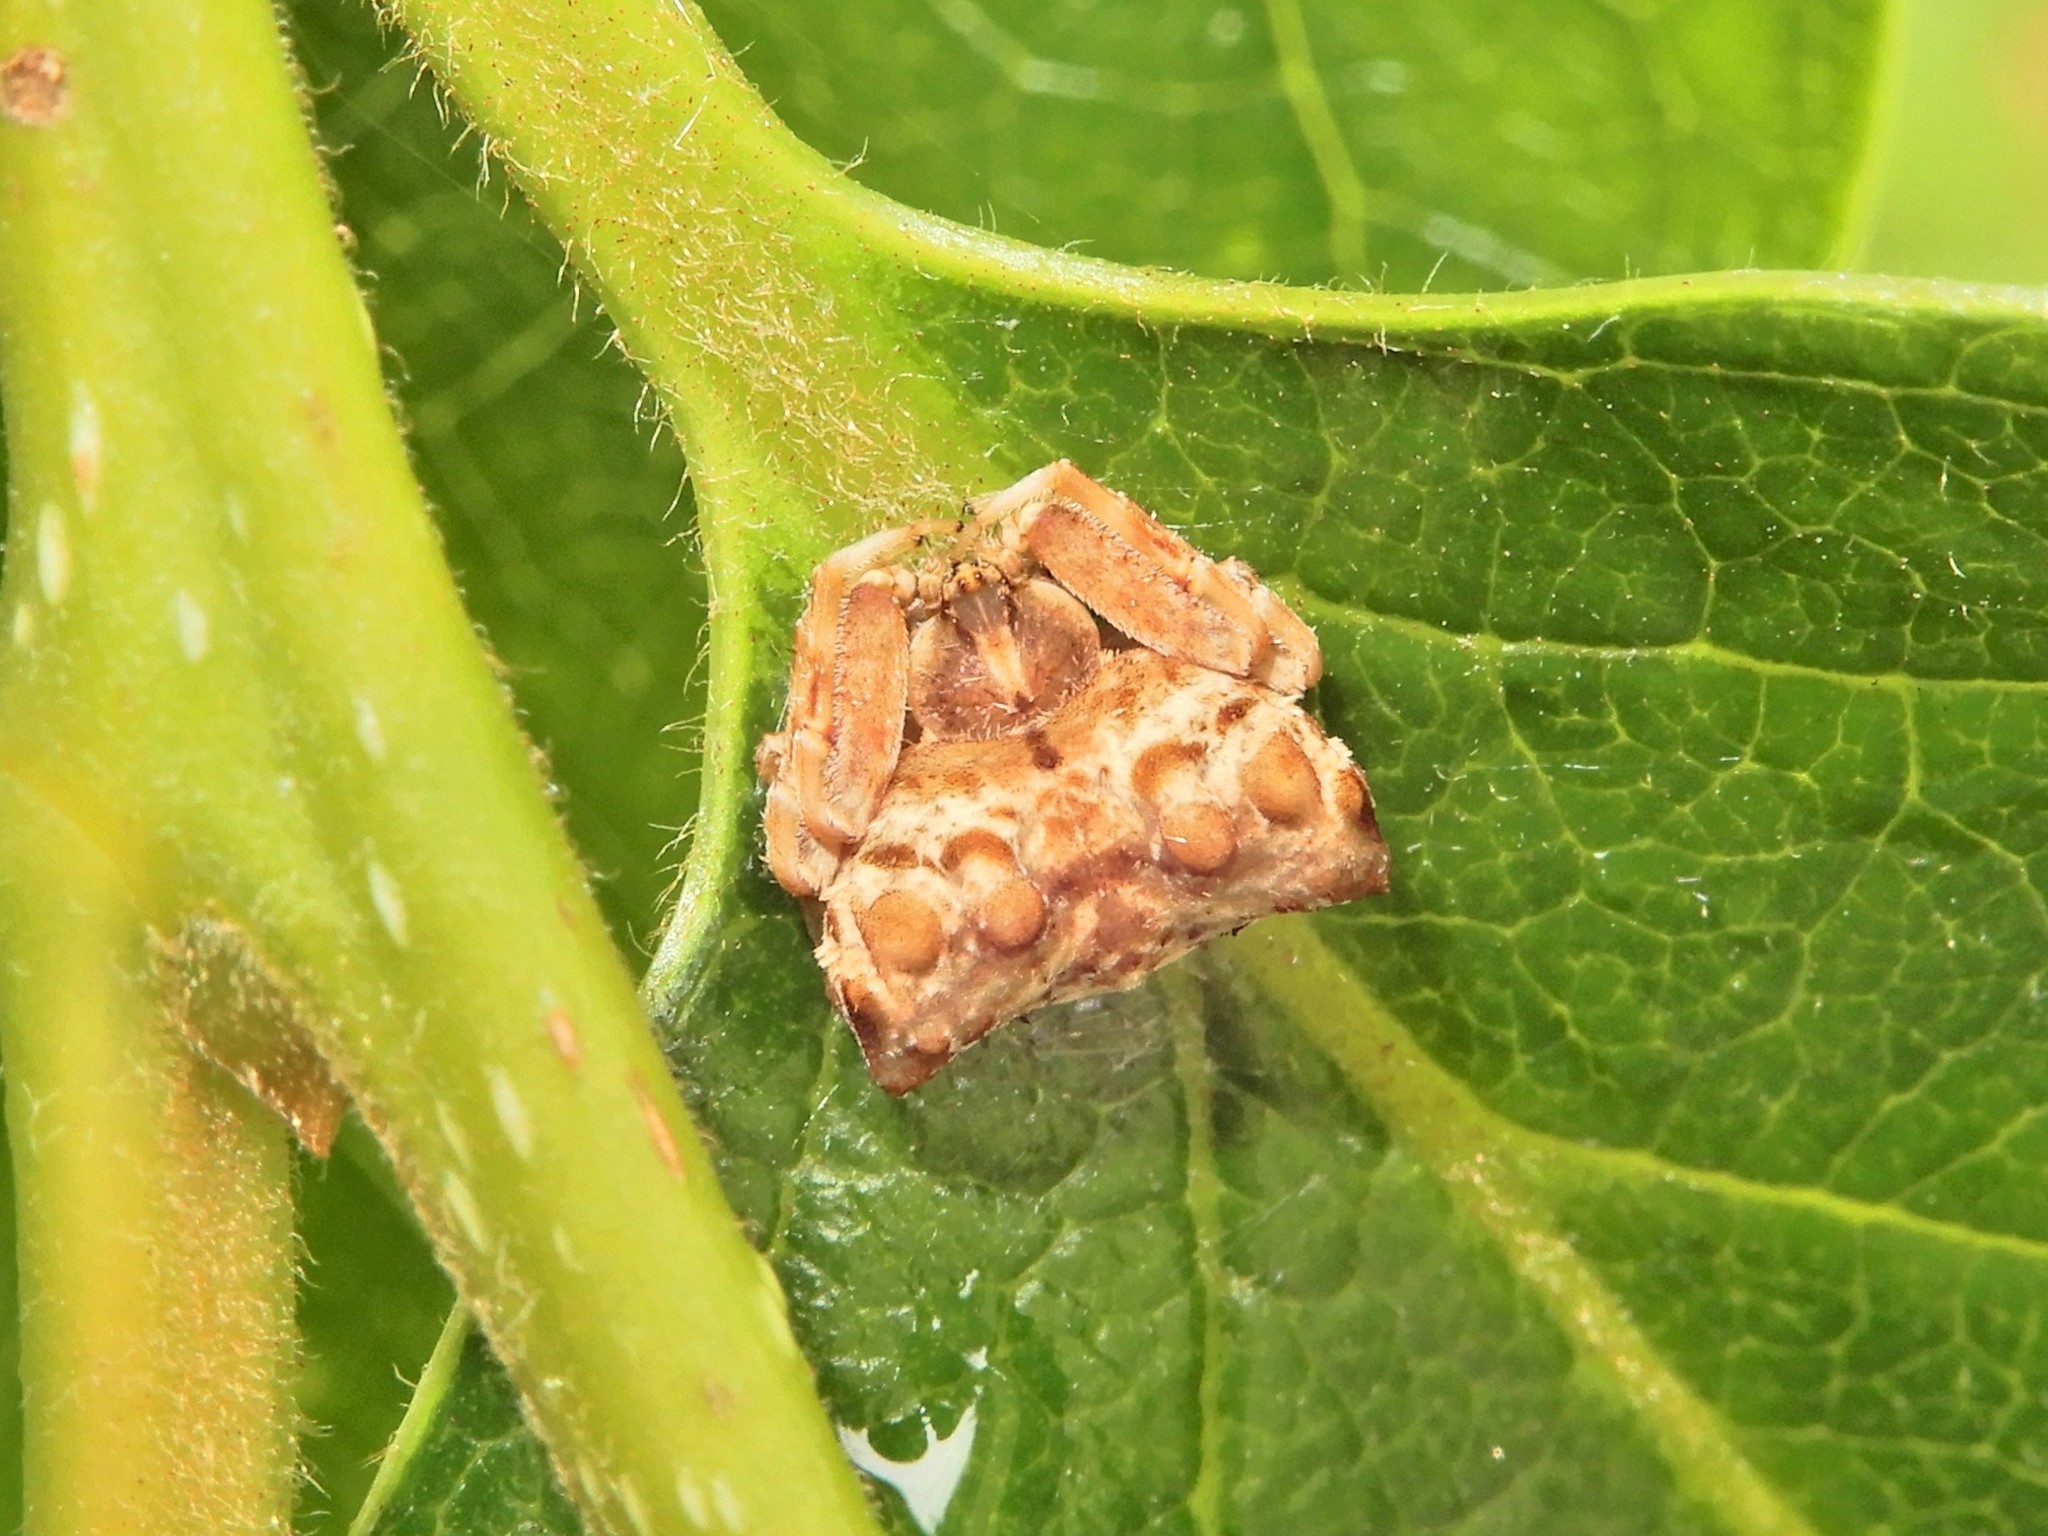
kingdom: Animalia
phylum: Arthropoda
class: Arachnida
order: Araneae
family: Araneidae
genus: Celaenia
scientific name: Celaenia tuberosa
